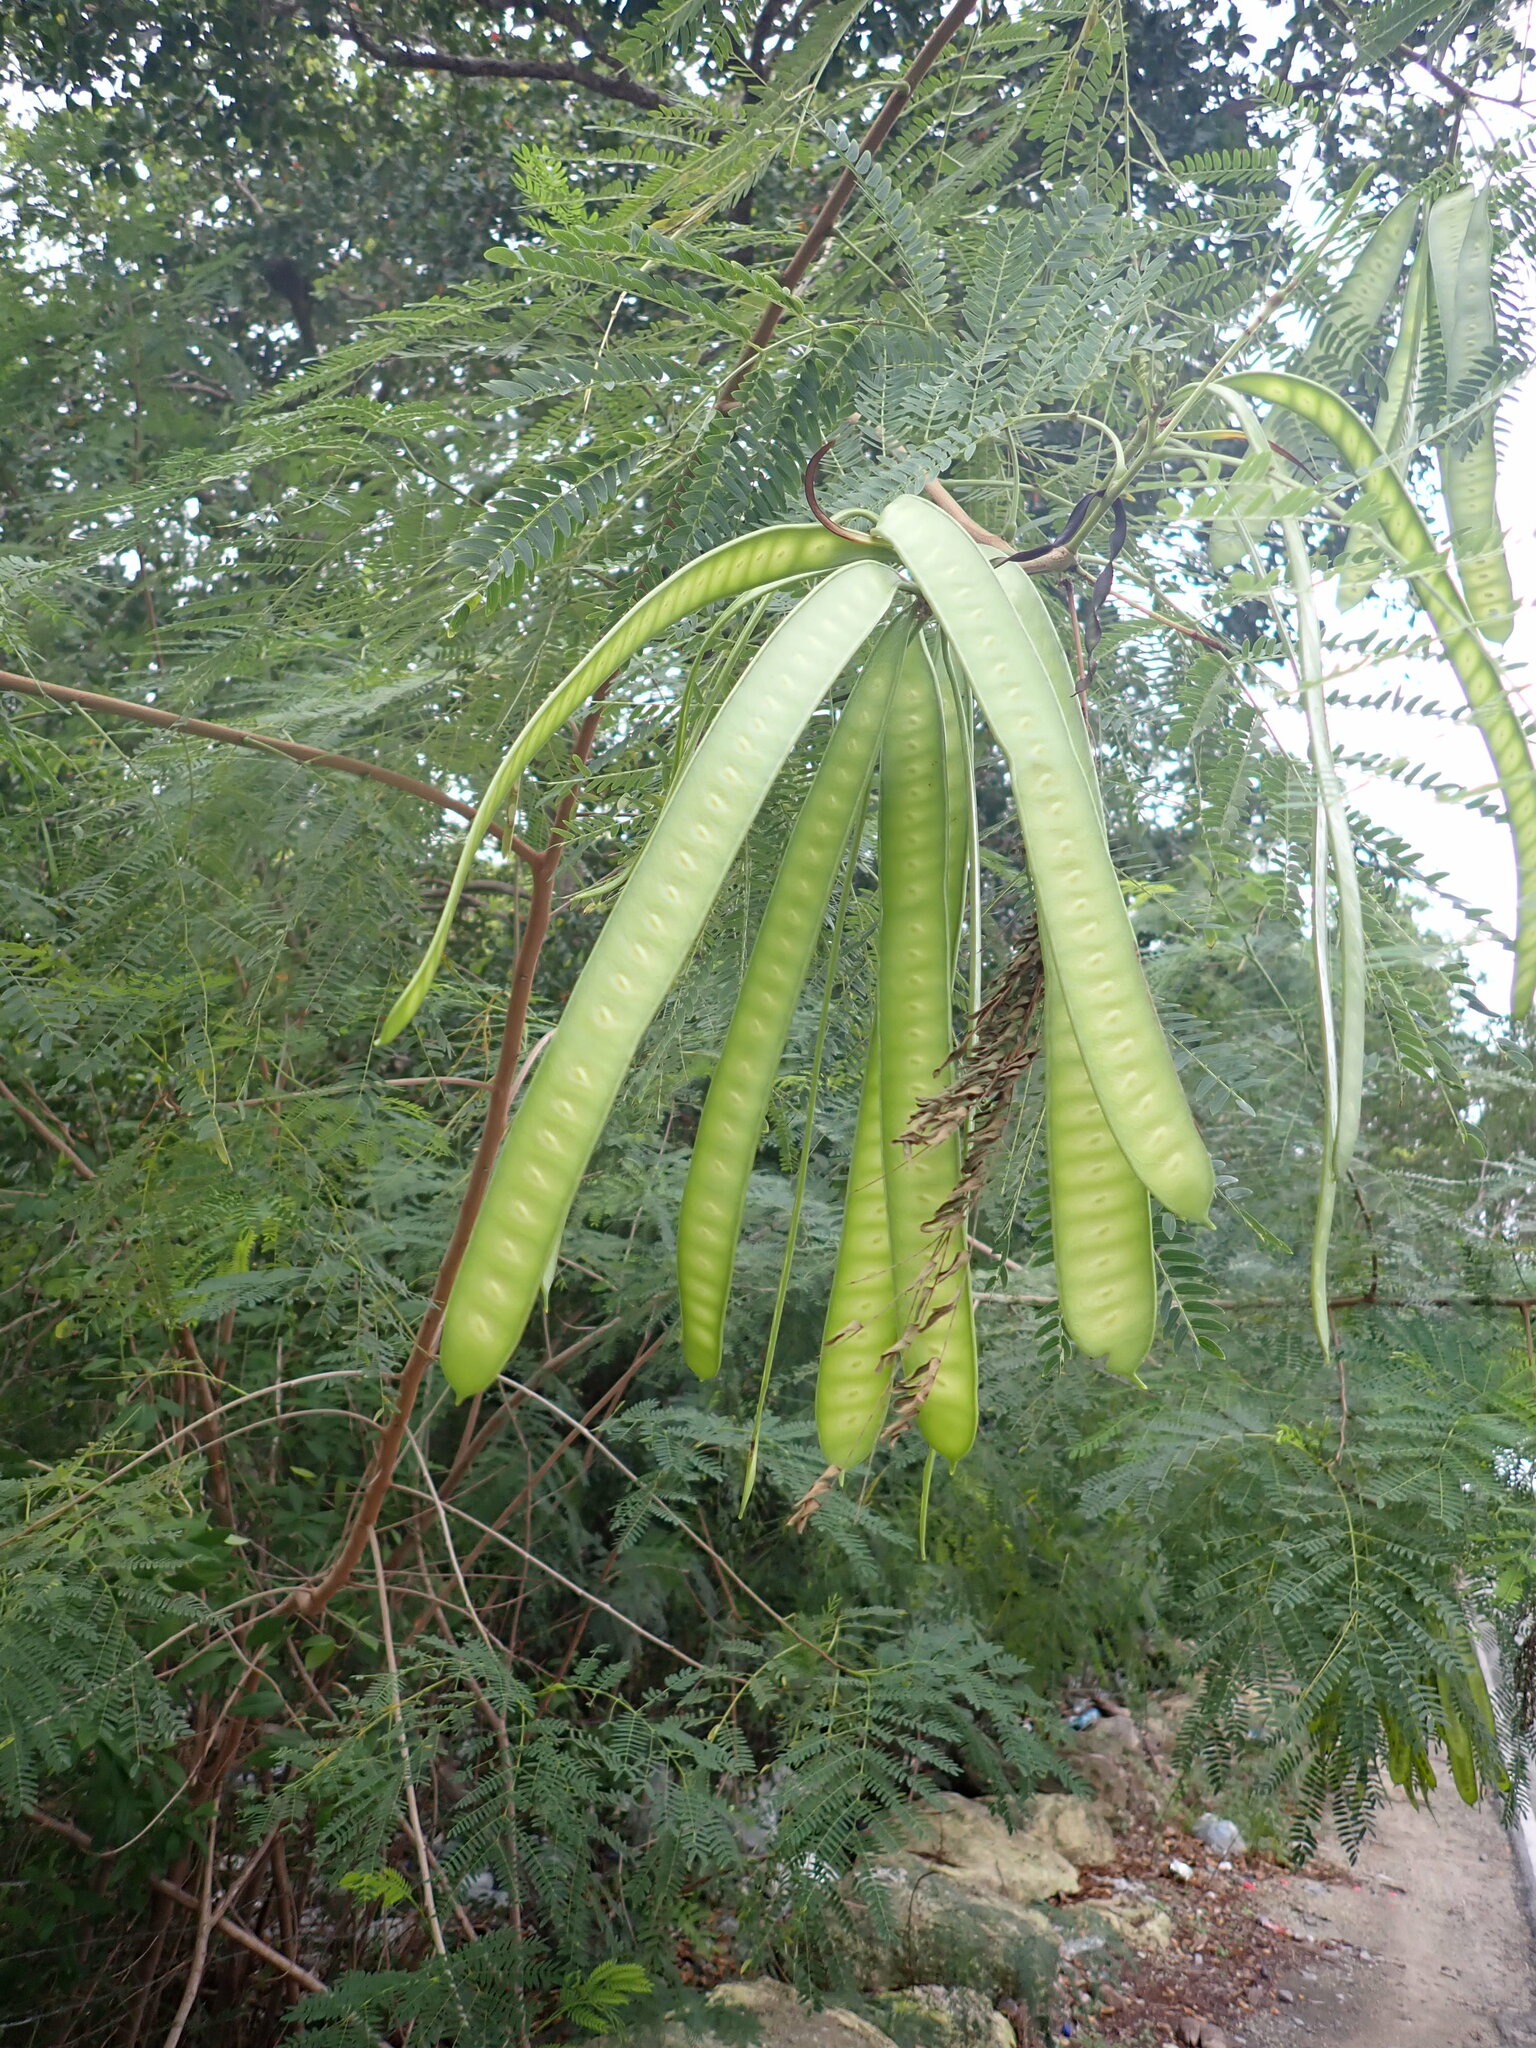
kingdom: Plantae
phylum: Tracheophyta
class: Magnoliopsida
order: Fabales
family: Fabaceae
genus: Leucaena
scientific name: Leucaena leucocephala
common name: White leadtree
